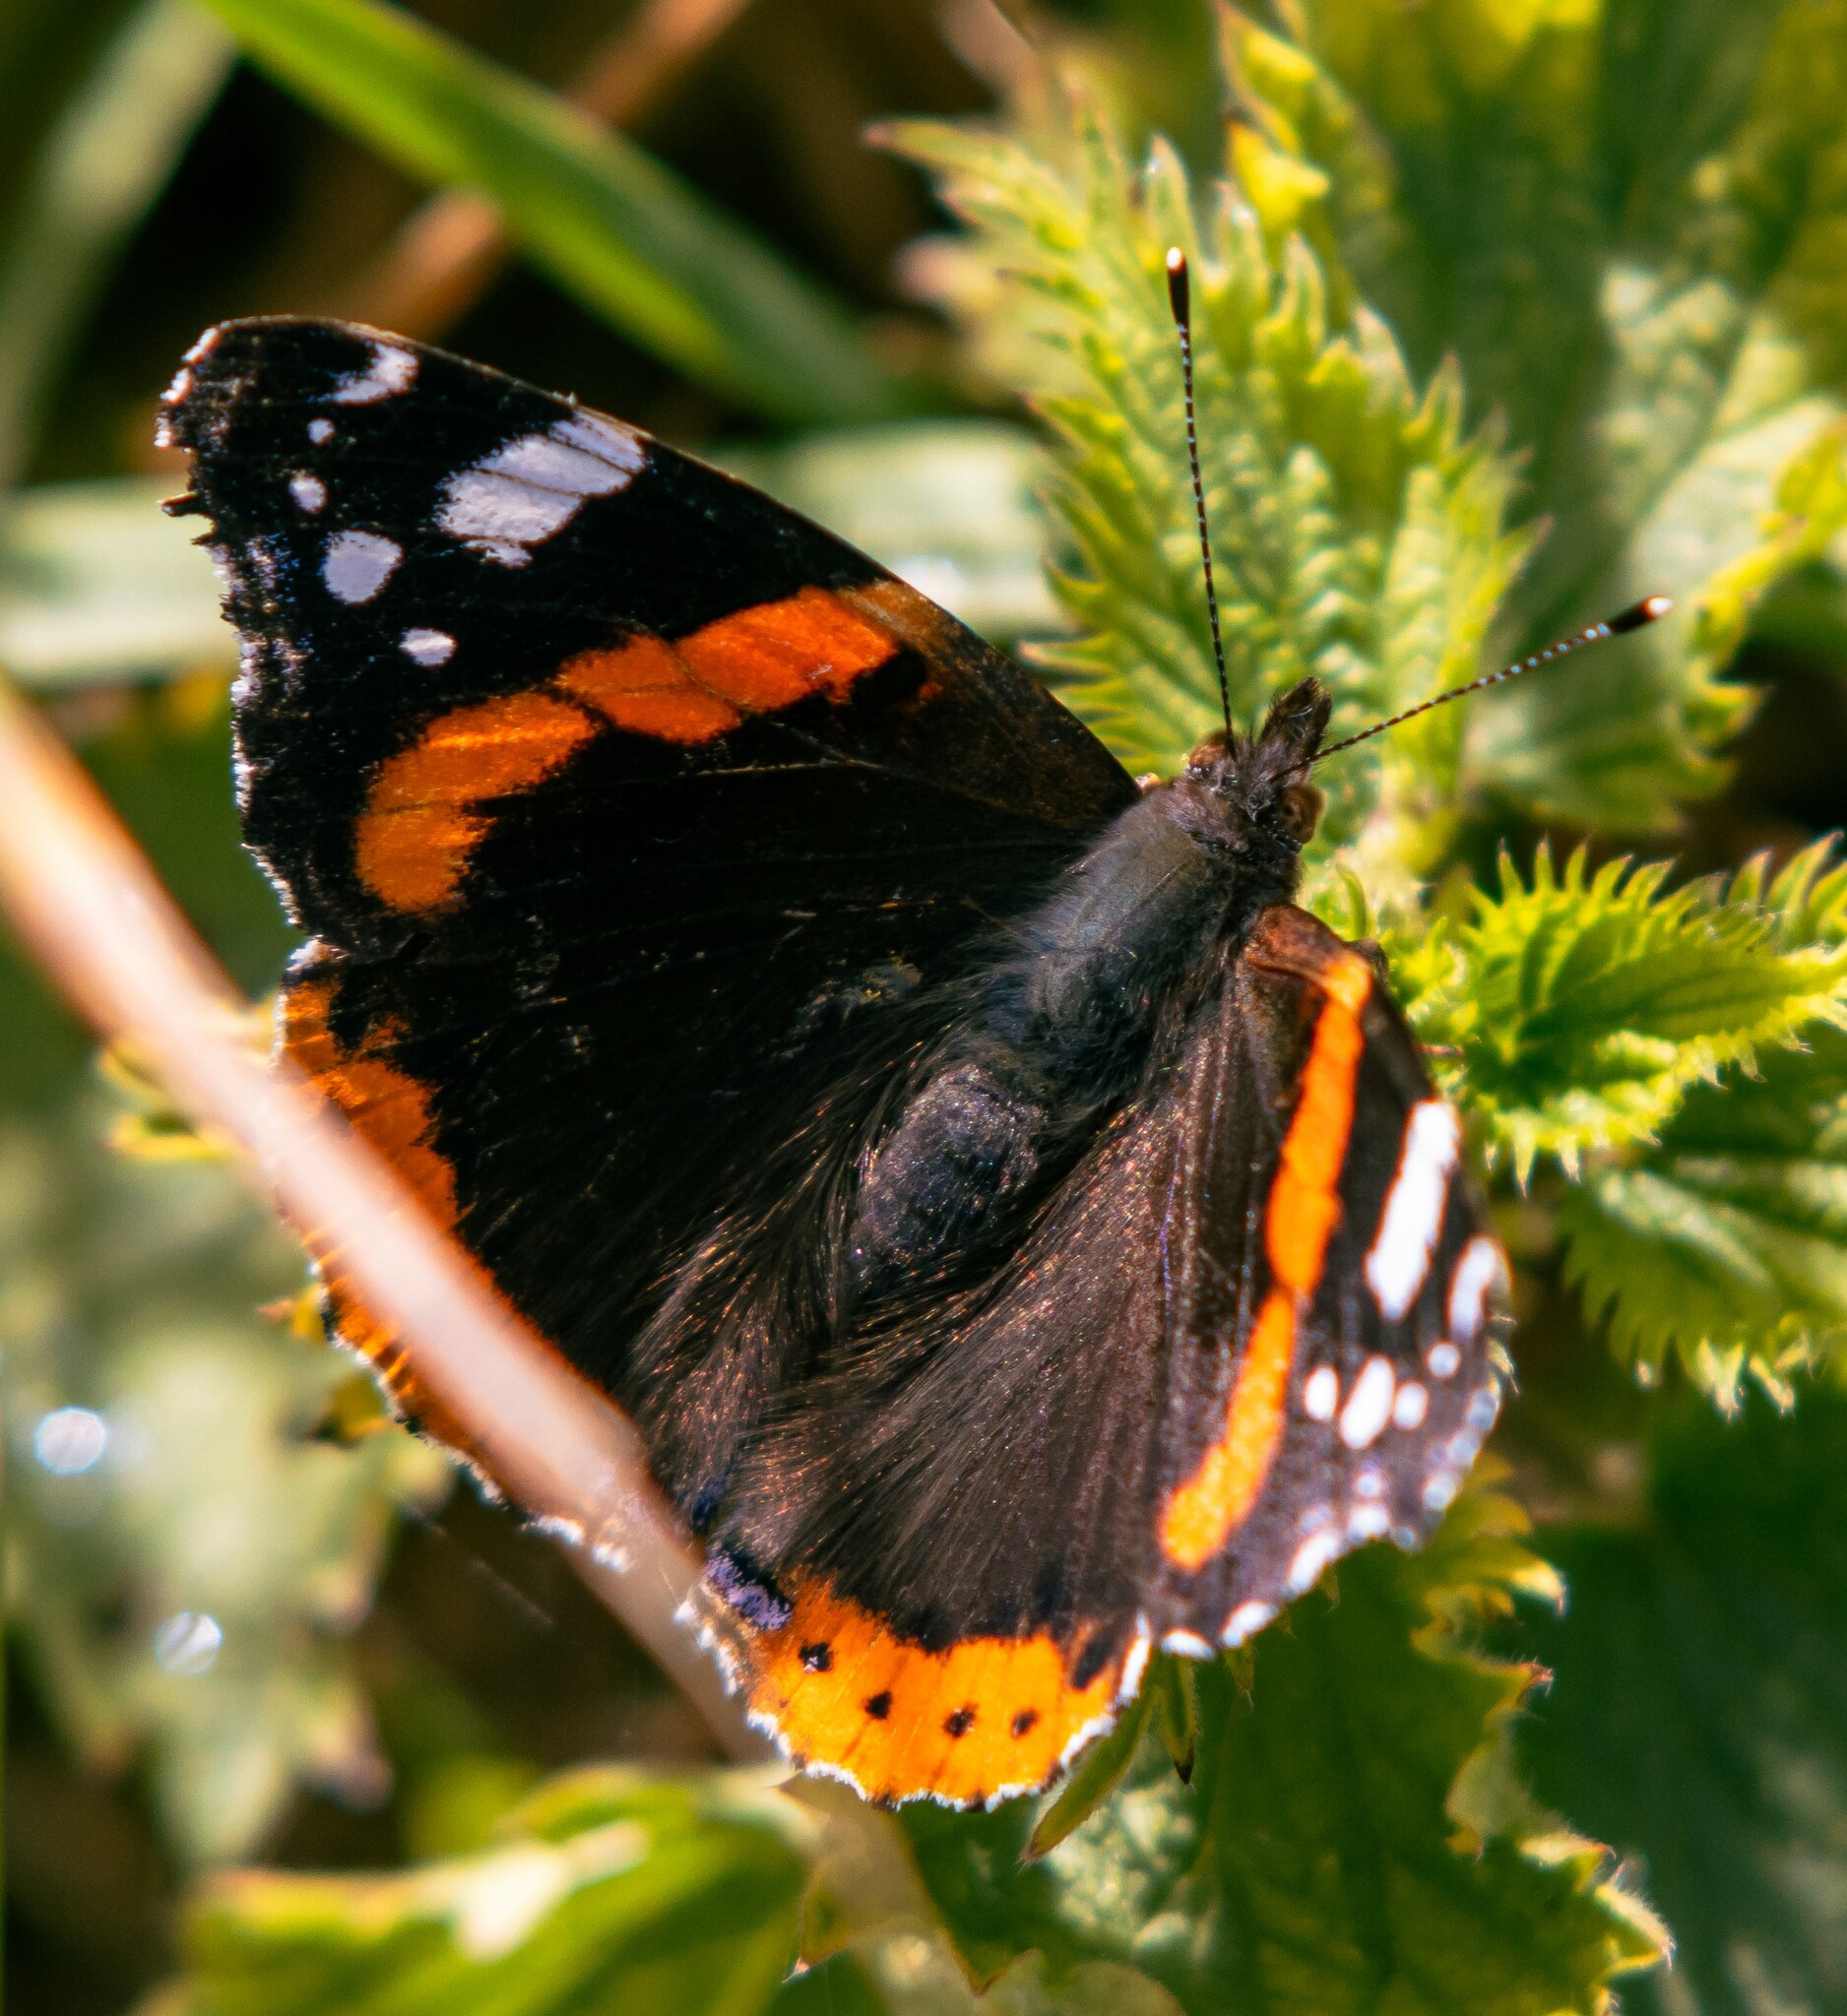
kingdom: Animalia
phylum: Arthropoda
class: Insecta
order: Lepidoptera
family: Nymphalidae
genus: Vanessa
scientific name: Vanessa atalanta
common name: Red admiral
